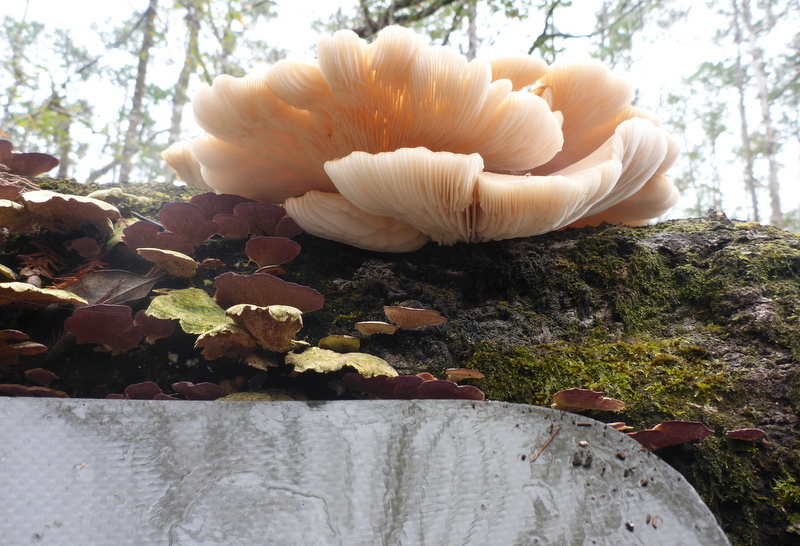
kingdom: Fungi
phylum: Basidiomycota
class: Agaricomycetes
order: Agaricales
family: Pleurotaceae
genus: Pleurotus
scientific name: Pleurotus ostreatus
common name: Oyster mushroom
